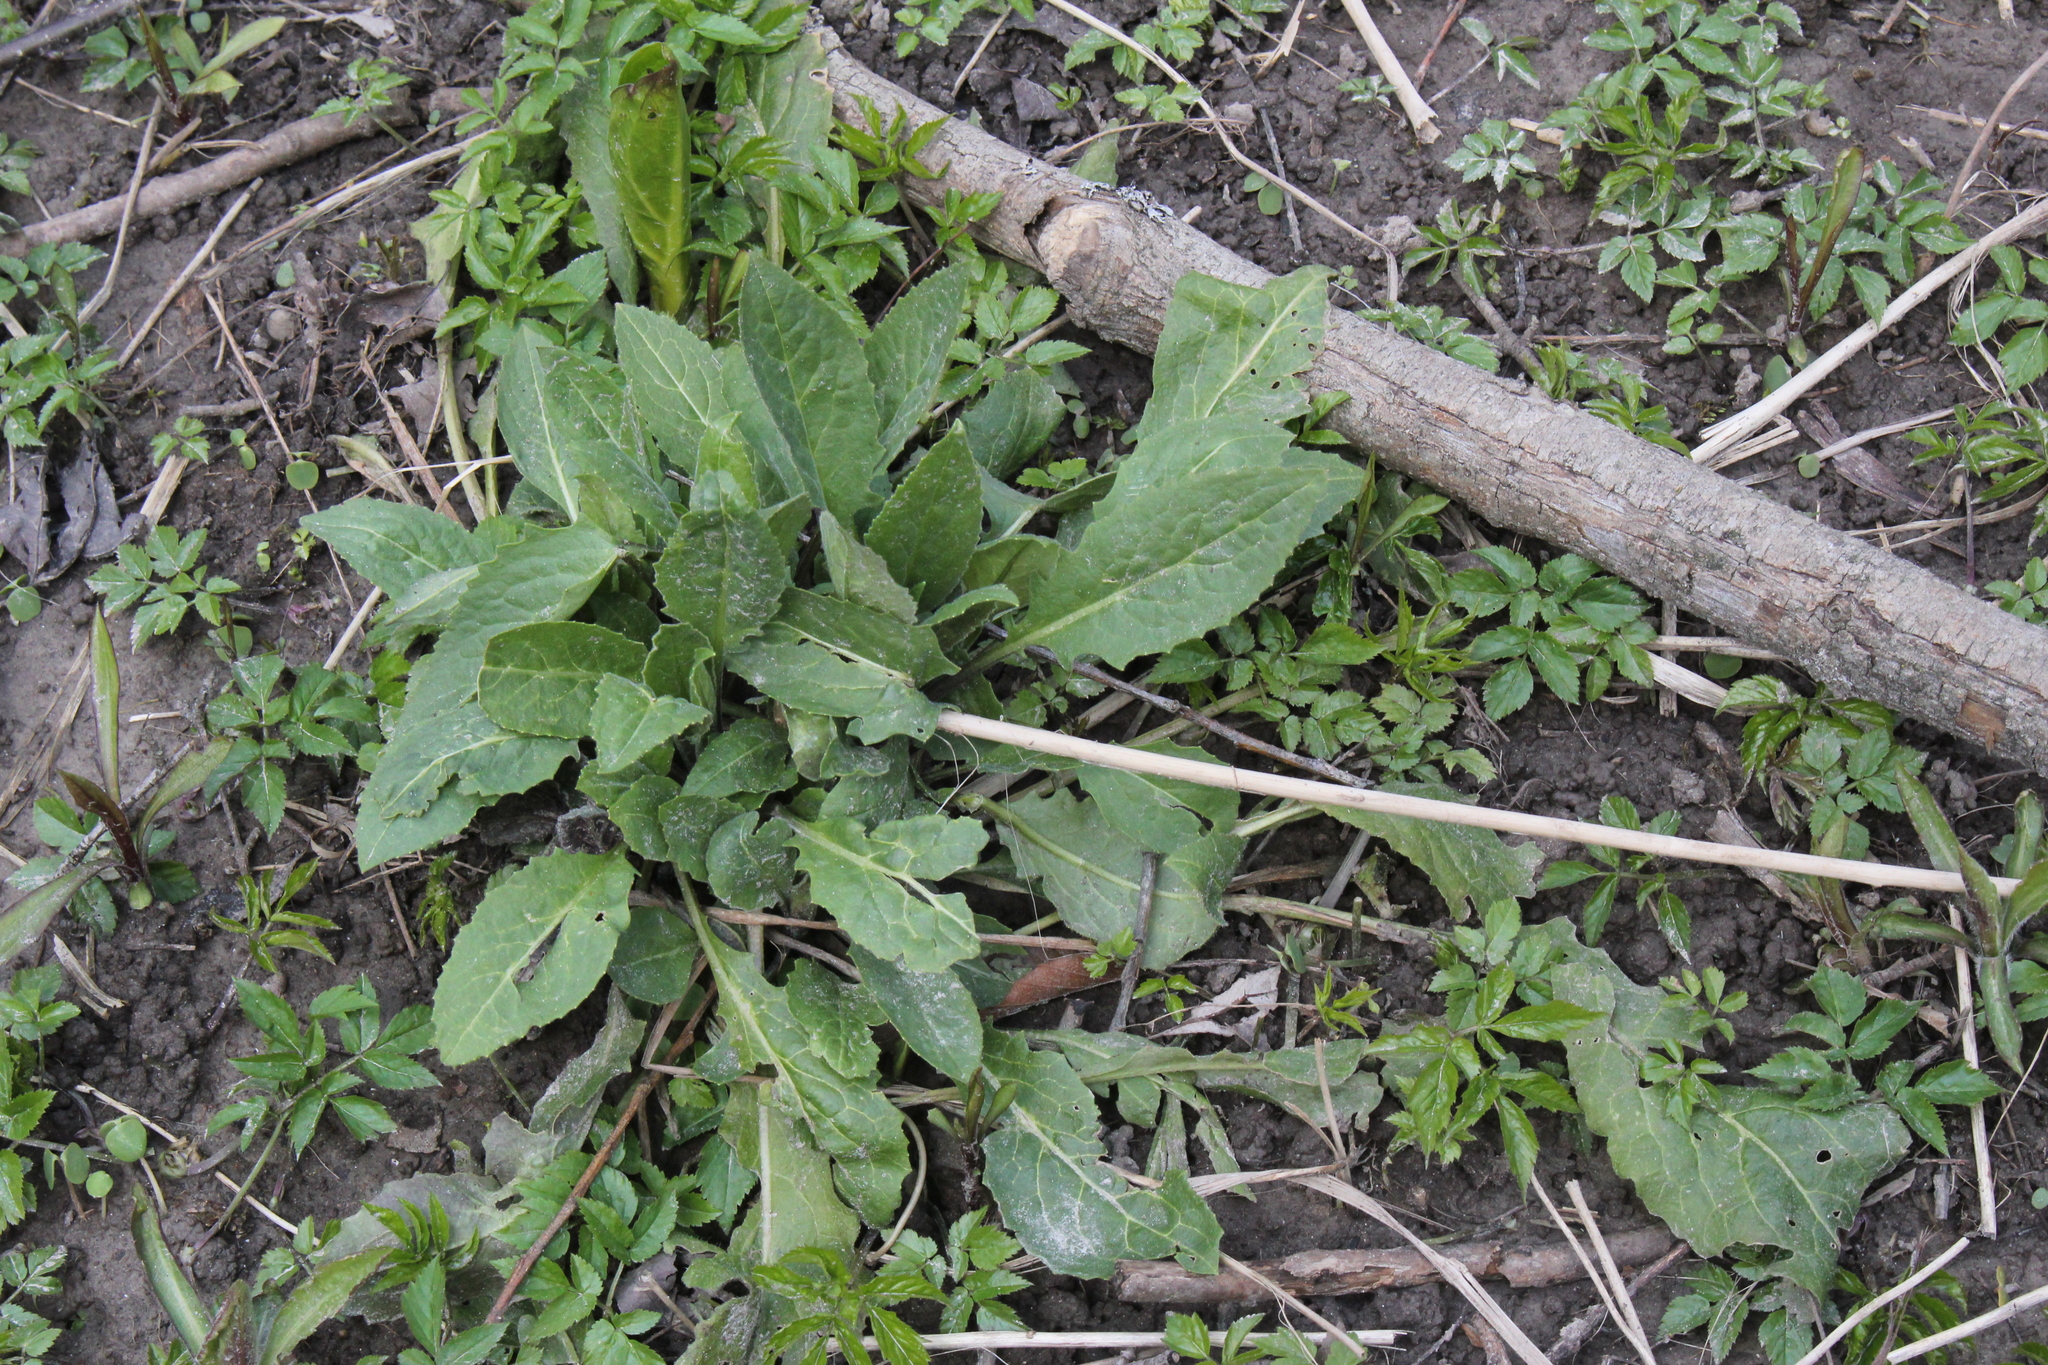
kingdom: Plantae
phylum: Tracheophyta
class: Magnoliopsida
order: Brassicales
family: Brassicaceae
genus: Hesperis
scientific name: Hesperis matronalis
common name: Dame's-violet
